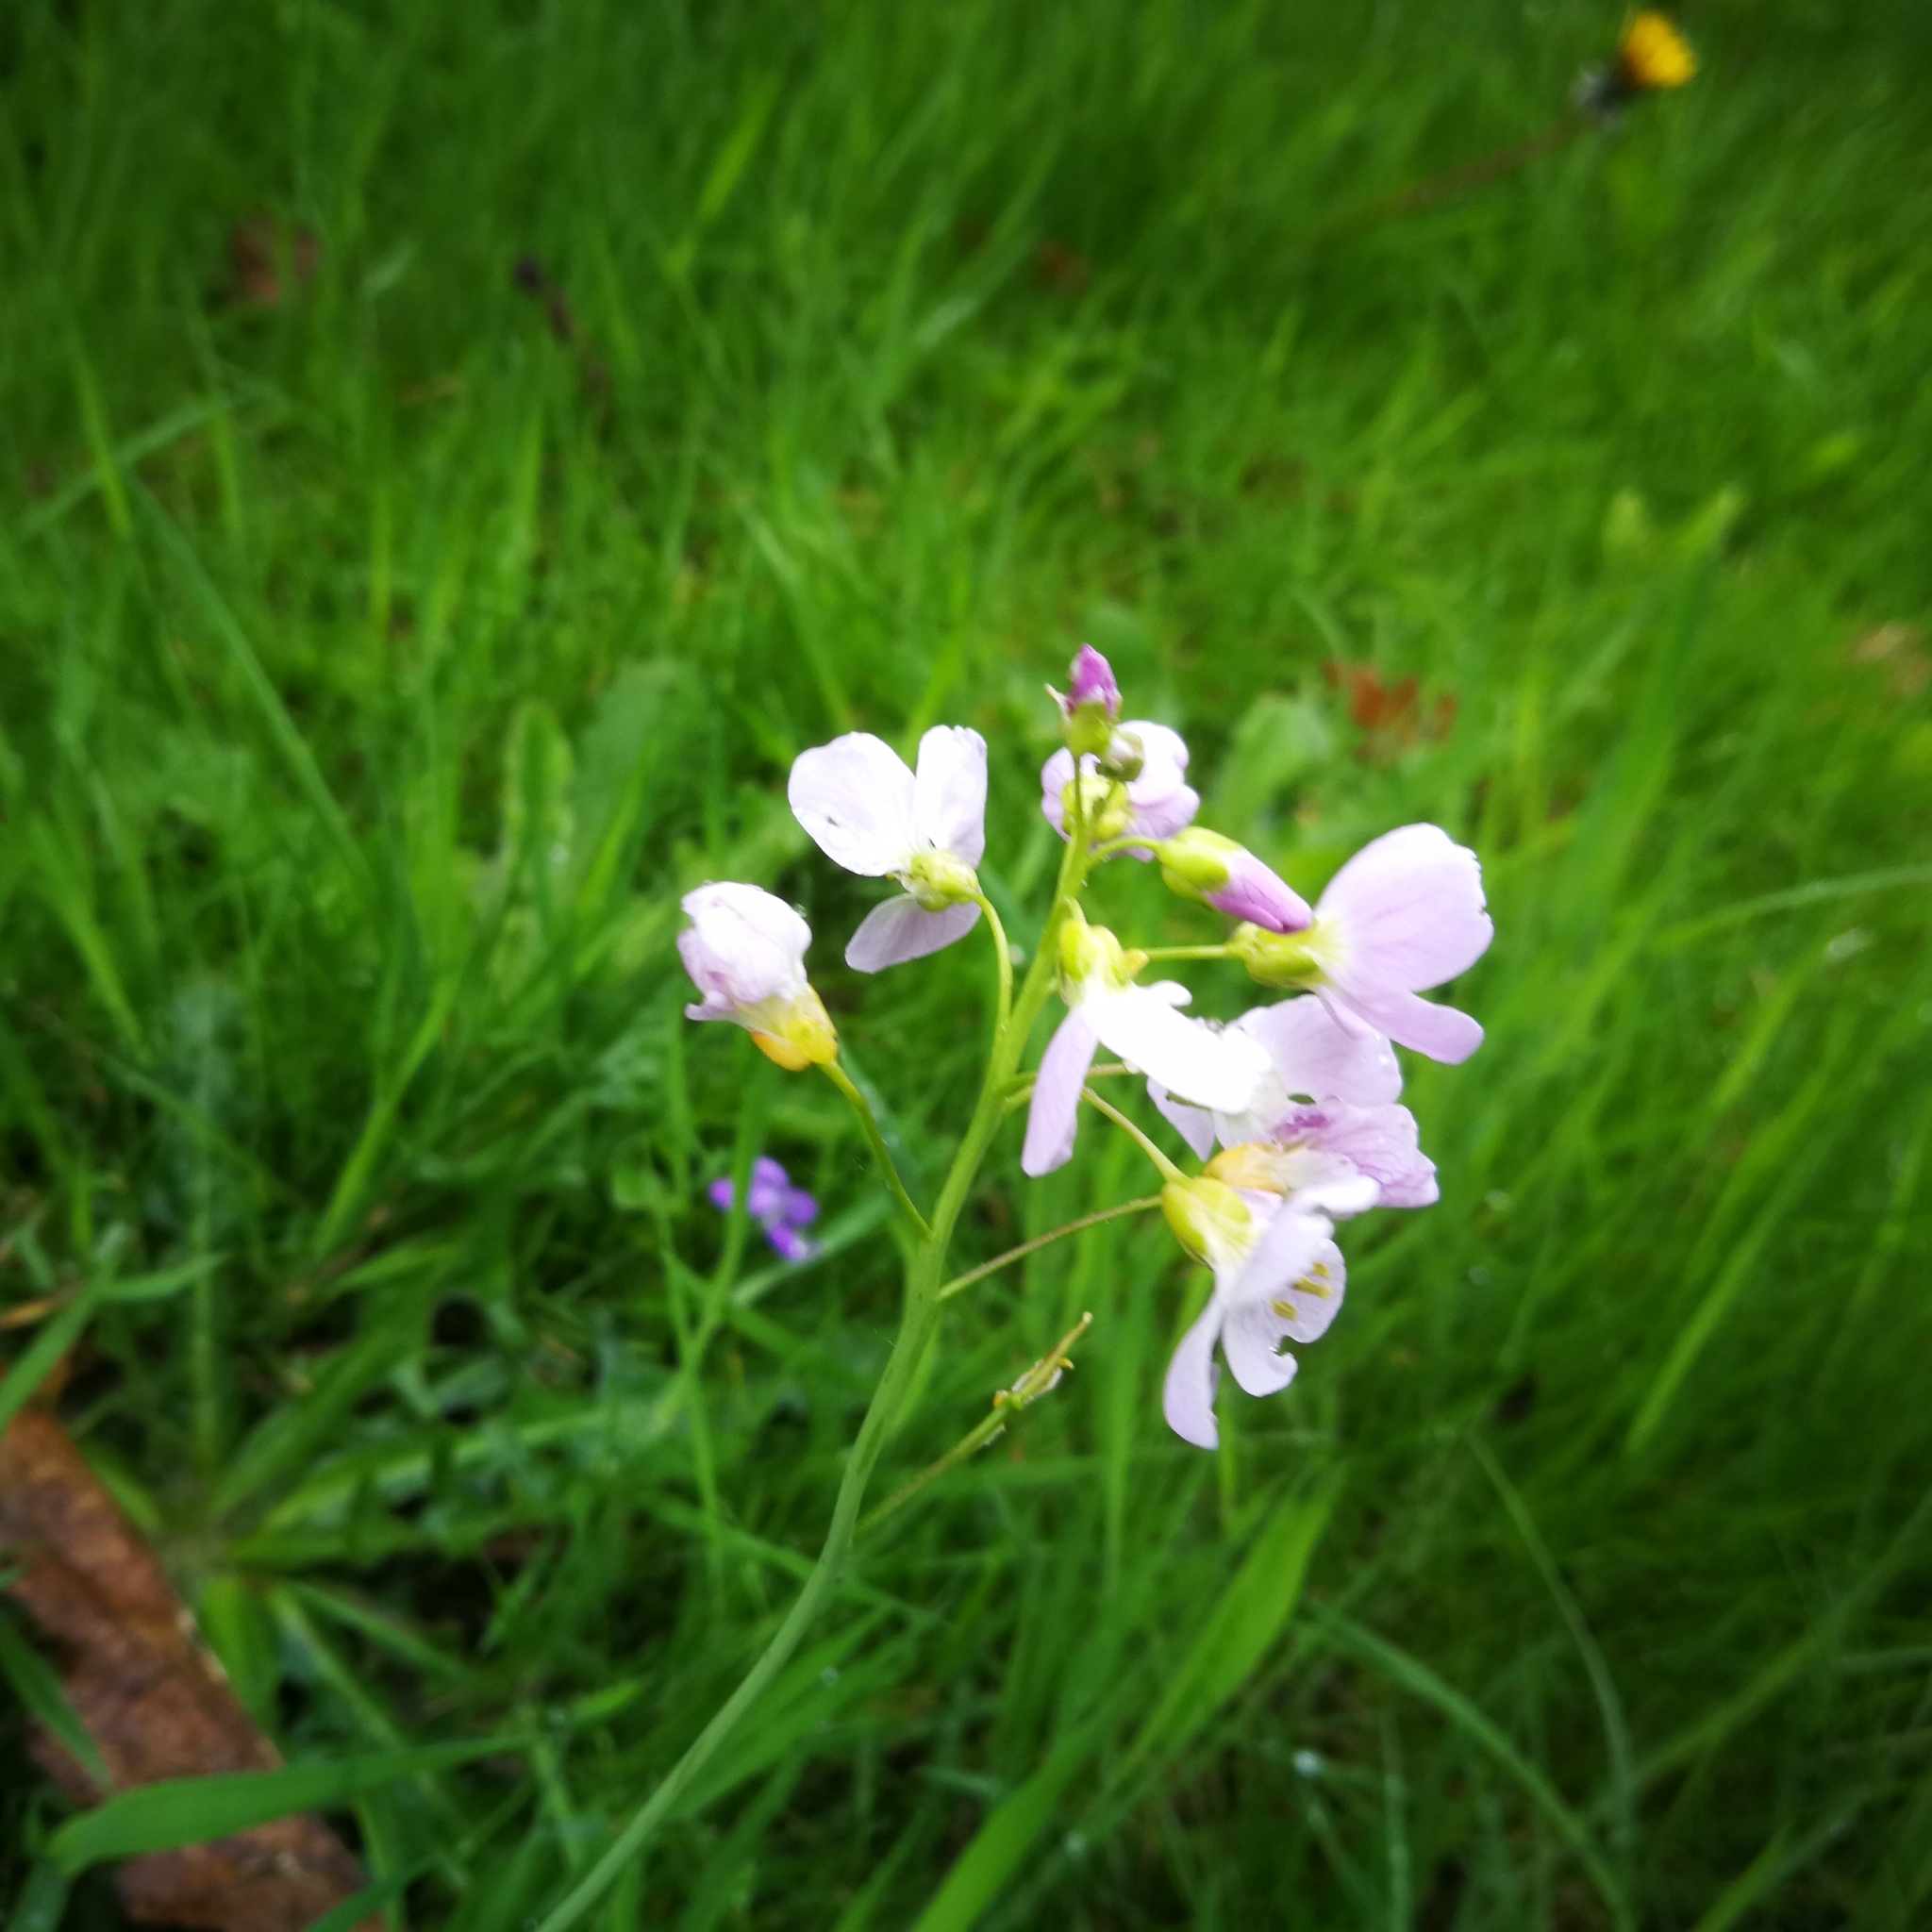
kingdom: Plantae
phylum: Tracheophyta
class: Magnoliopsida
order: Brassicales
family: Brassicaceae
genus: Cardamine
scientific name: Cardamine pratensis
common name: Cuckoo flower
